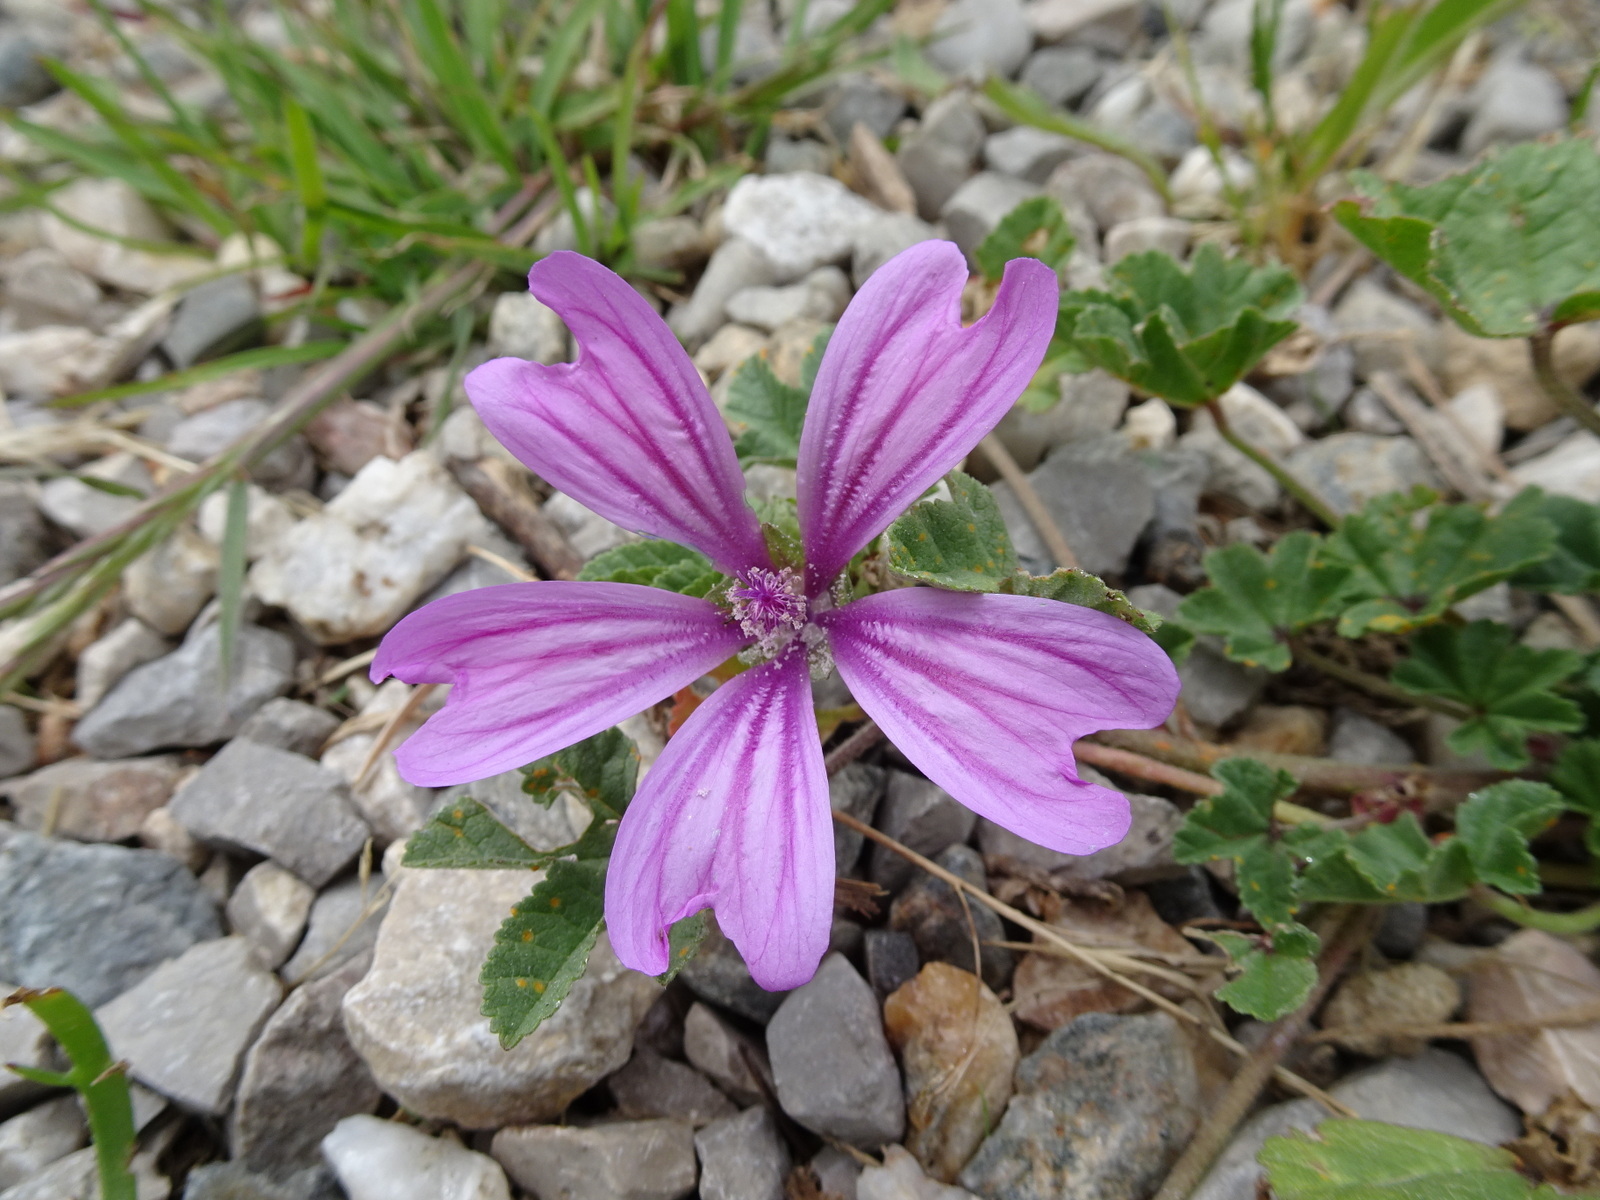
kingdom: Plantae
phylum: Tracheophyta
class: Magnoliopsida
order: Malvales
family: Malvaceae
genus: Malva
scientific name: Malva sylvestris
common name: Common mallow
